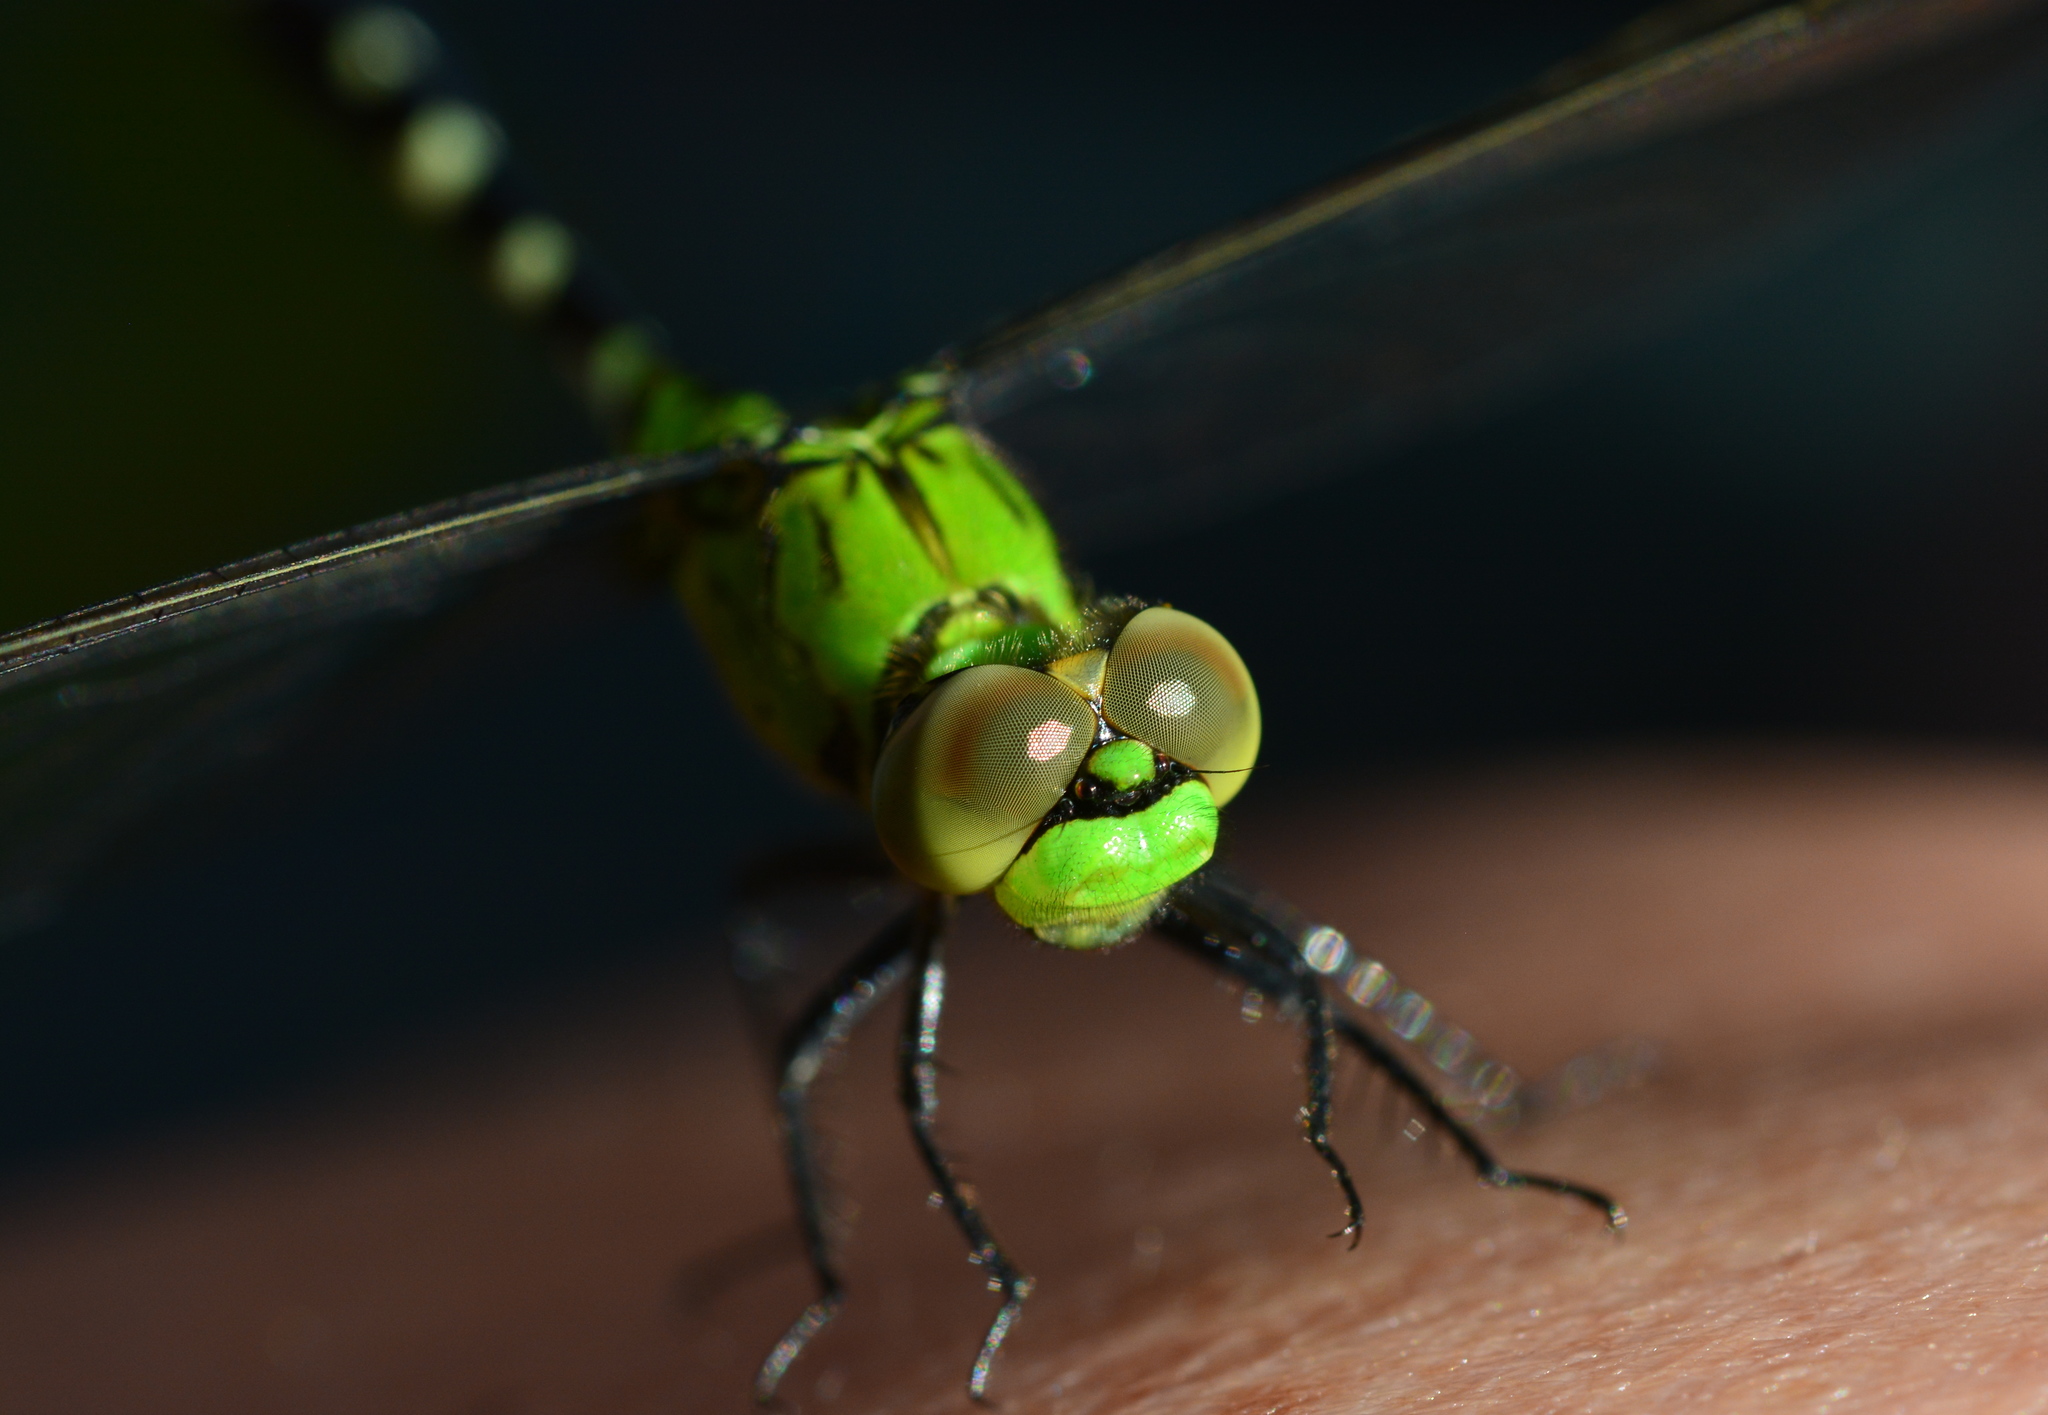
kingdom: Animalia
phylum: Arthropoda
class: Insecta
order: Odonata
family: Libellulidae
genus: Erythemis
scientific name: Erythemis simplicicollis
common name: Eastern pondhawk
